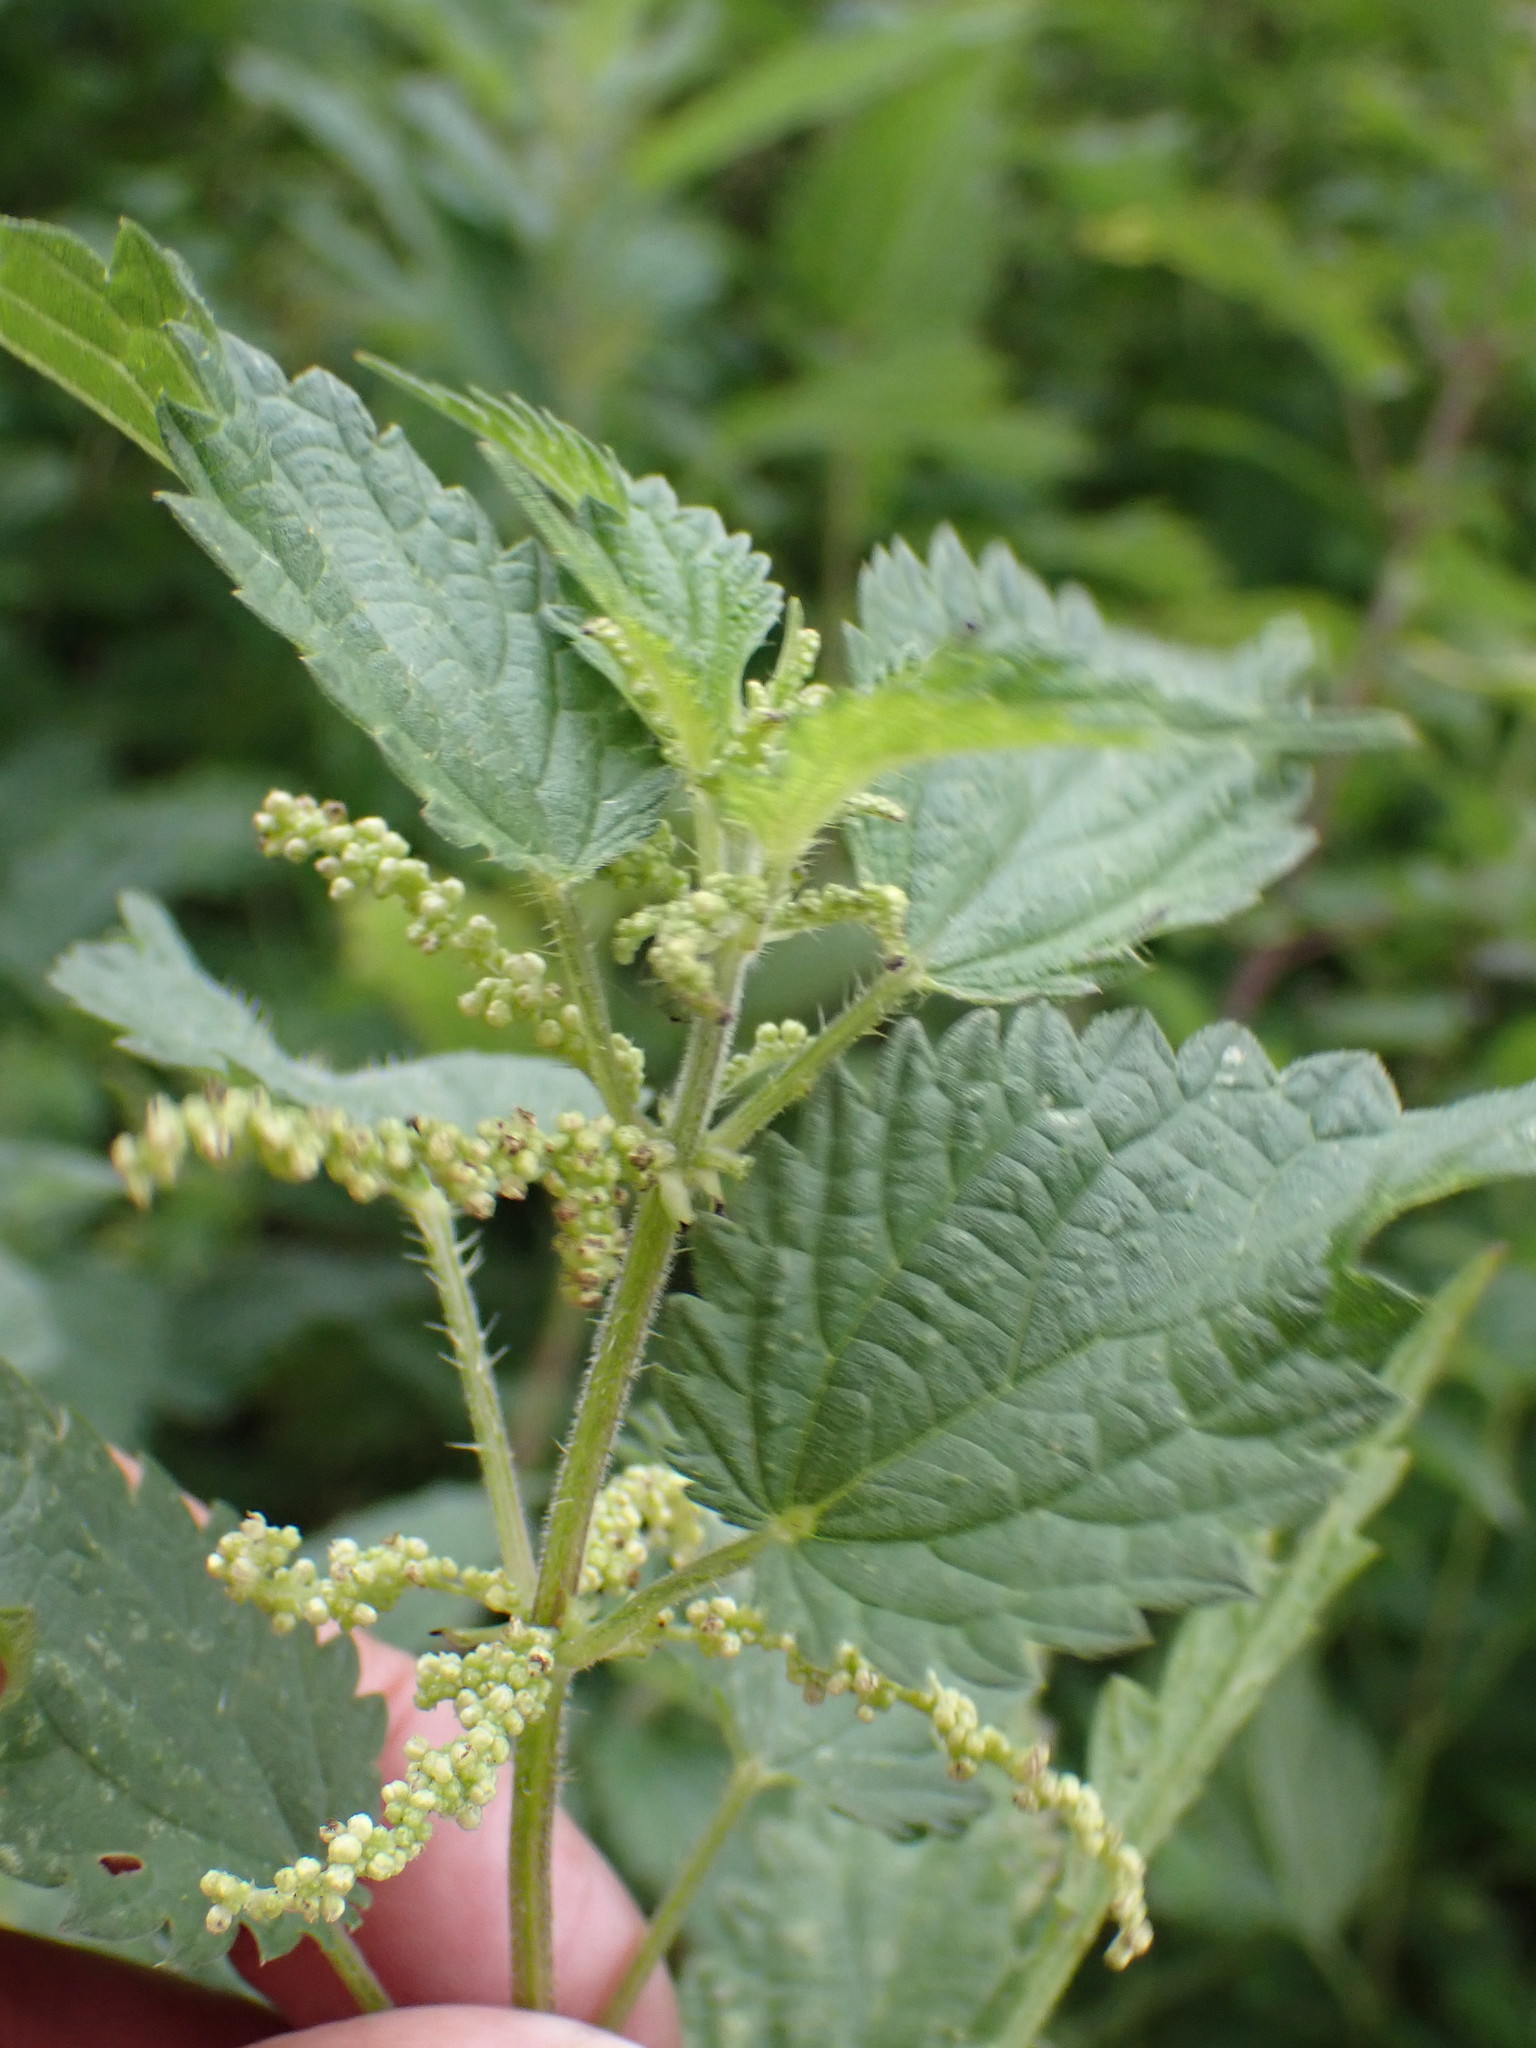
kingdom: Plantae
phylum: Tracheophyta
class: Magnoliopsida
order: Rosales
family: Urticaceae
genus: Urtica
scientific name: Urtica dioica
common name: Common nettle
